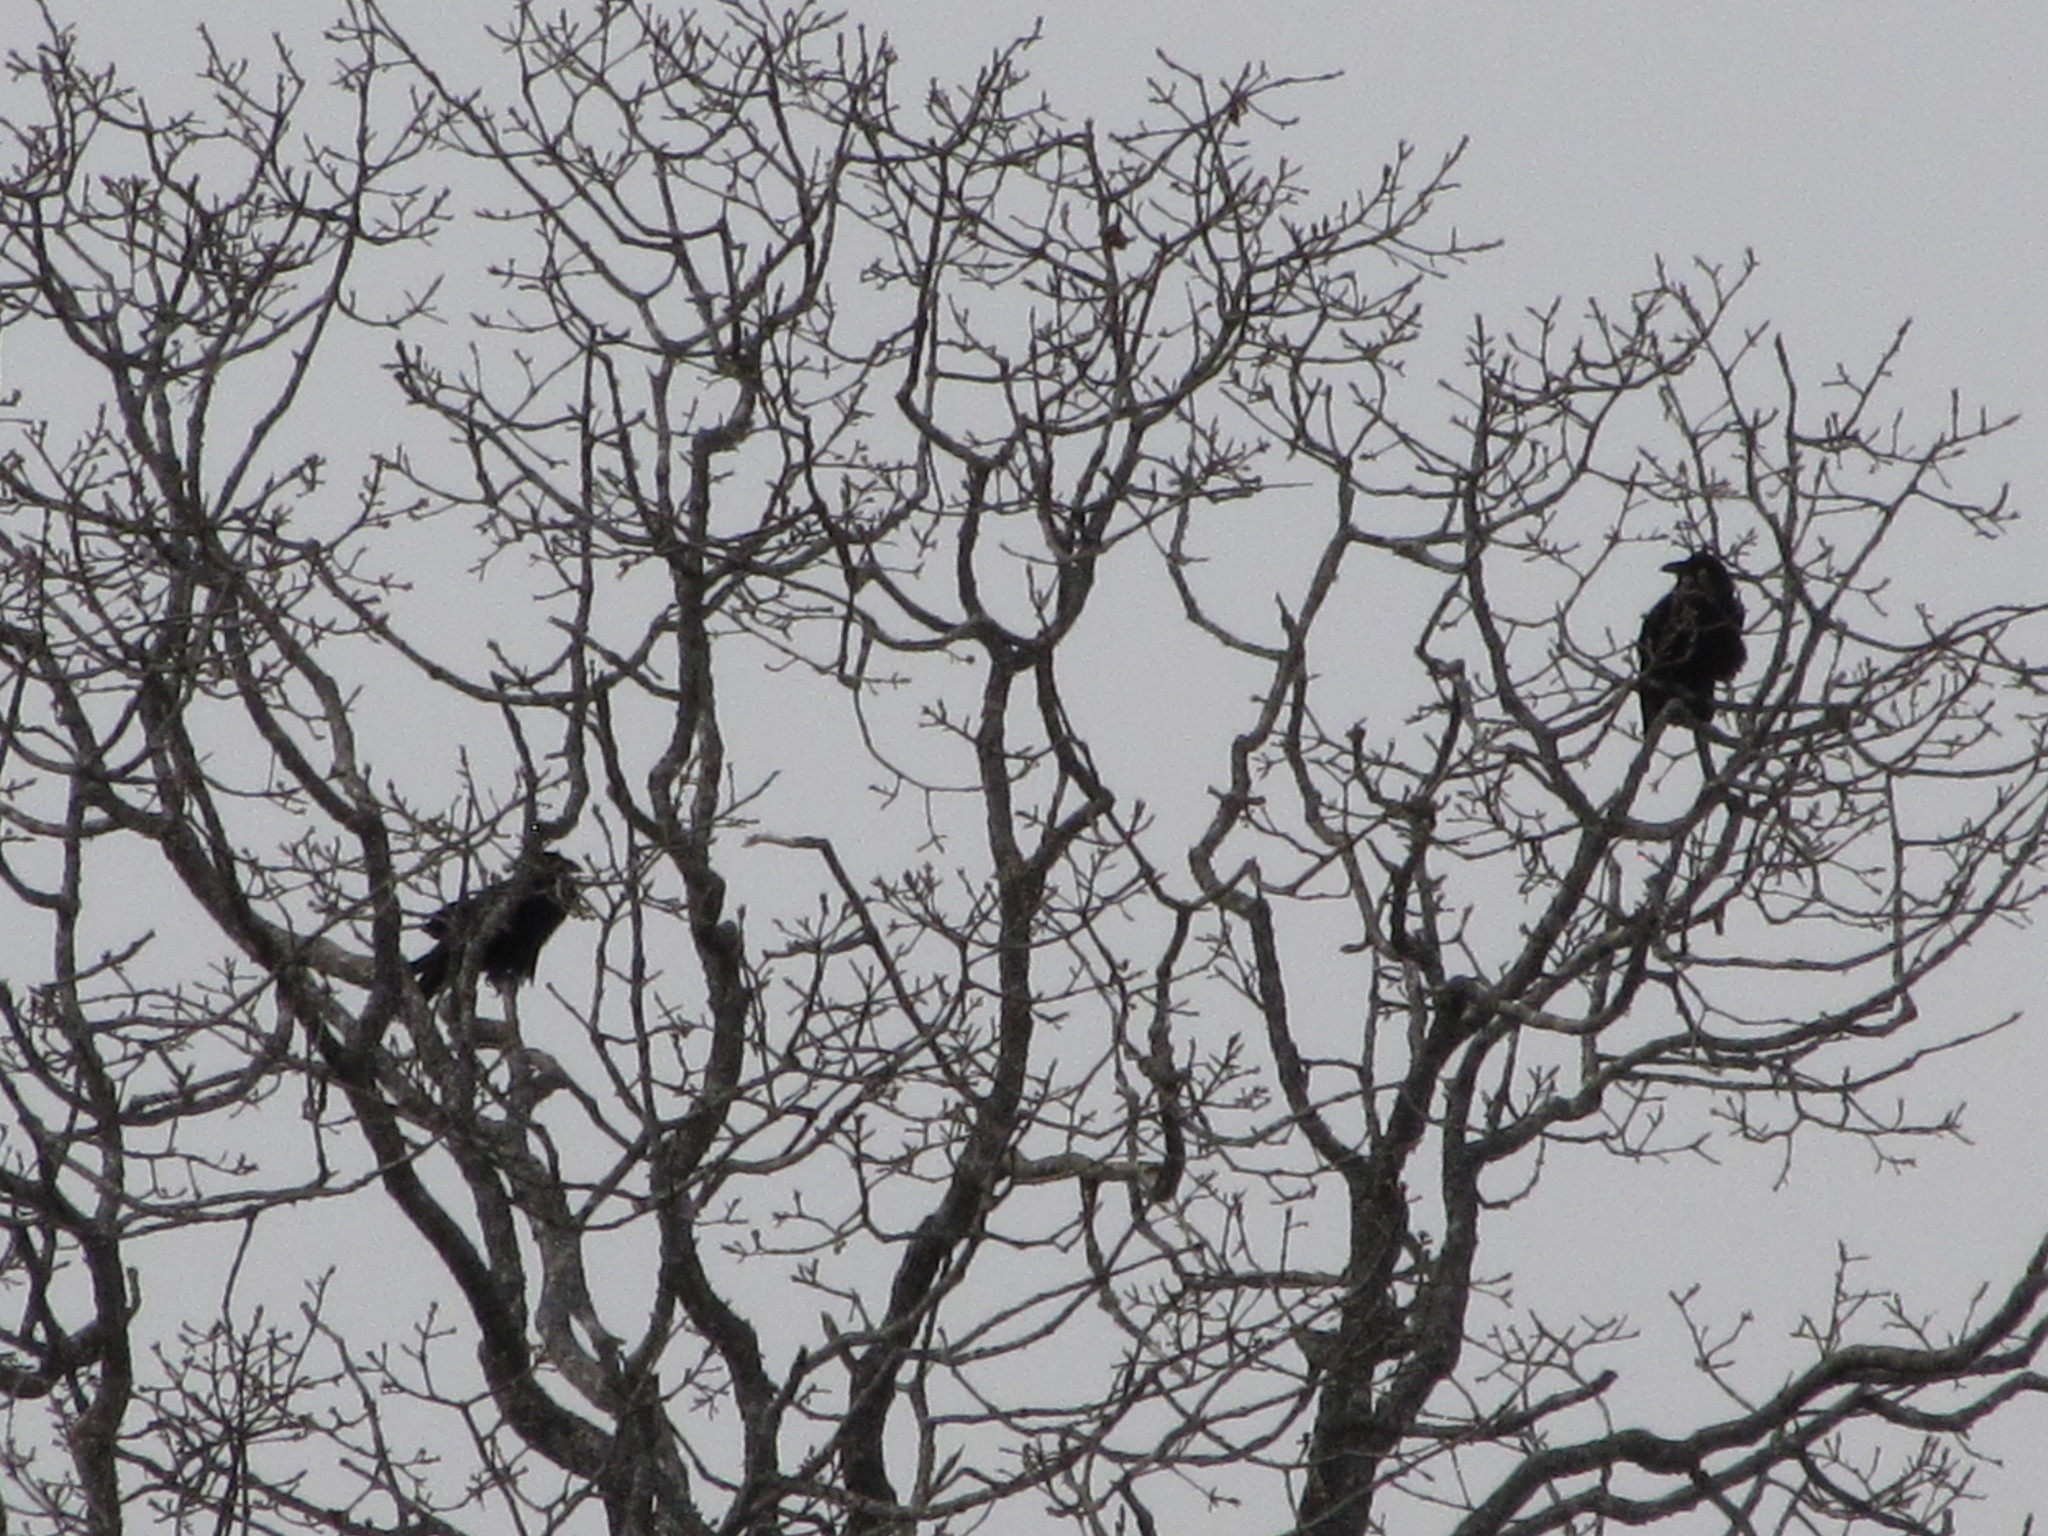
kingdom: Animalia
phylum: Chordata
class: Aves
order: Passeriformes
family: Corvidae
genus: Corvus
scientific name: Corvus corax
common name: Common raven
